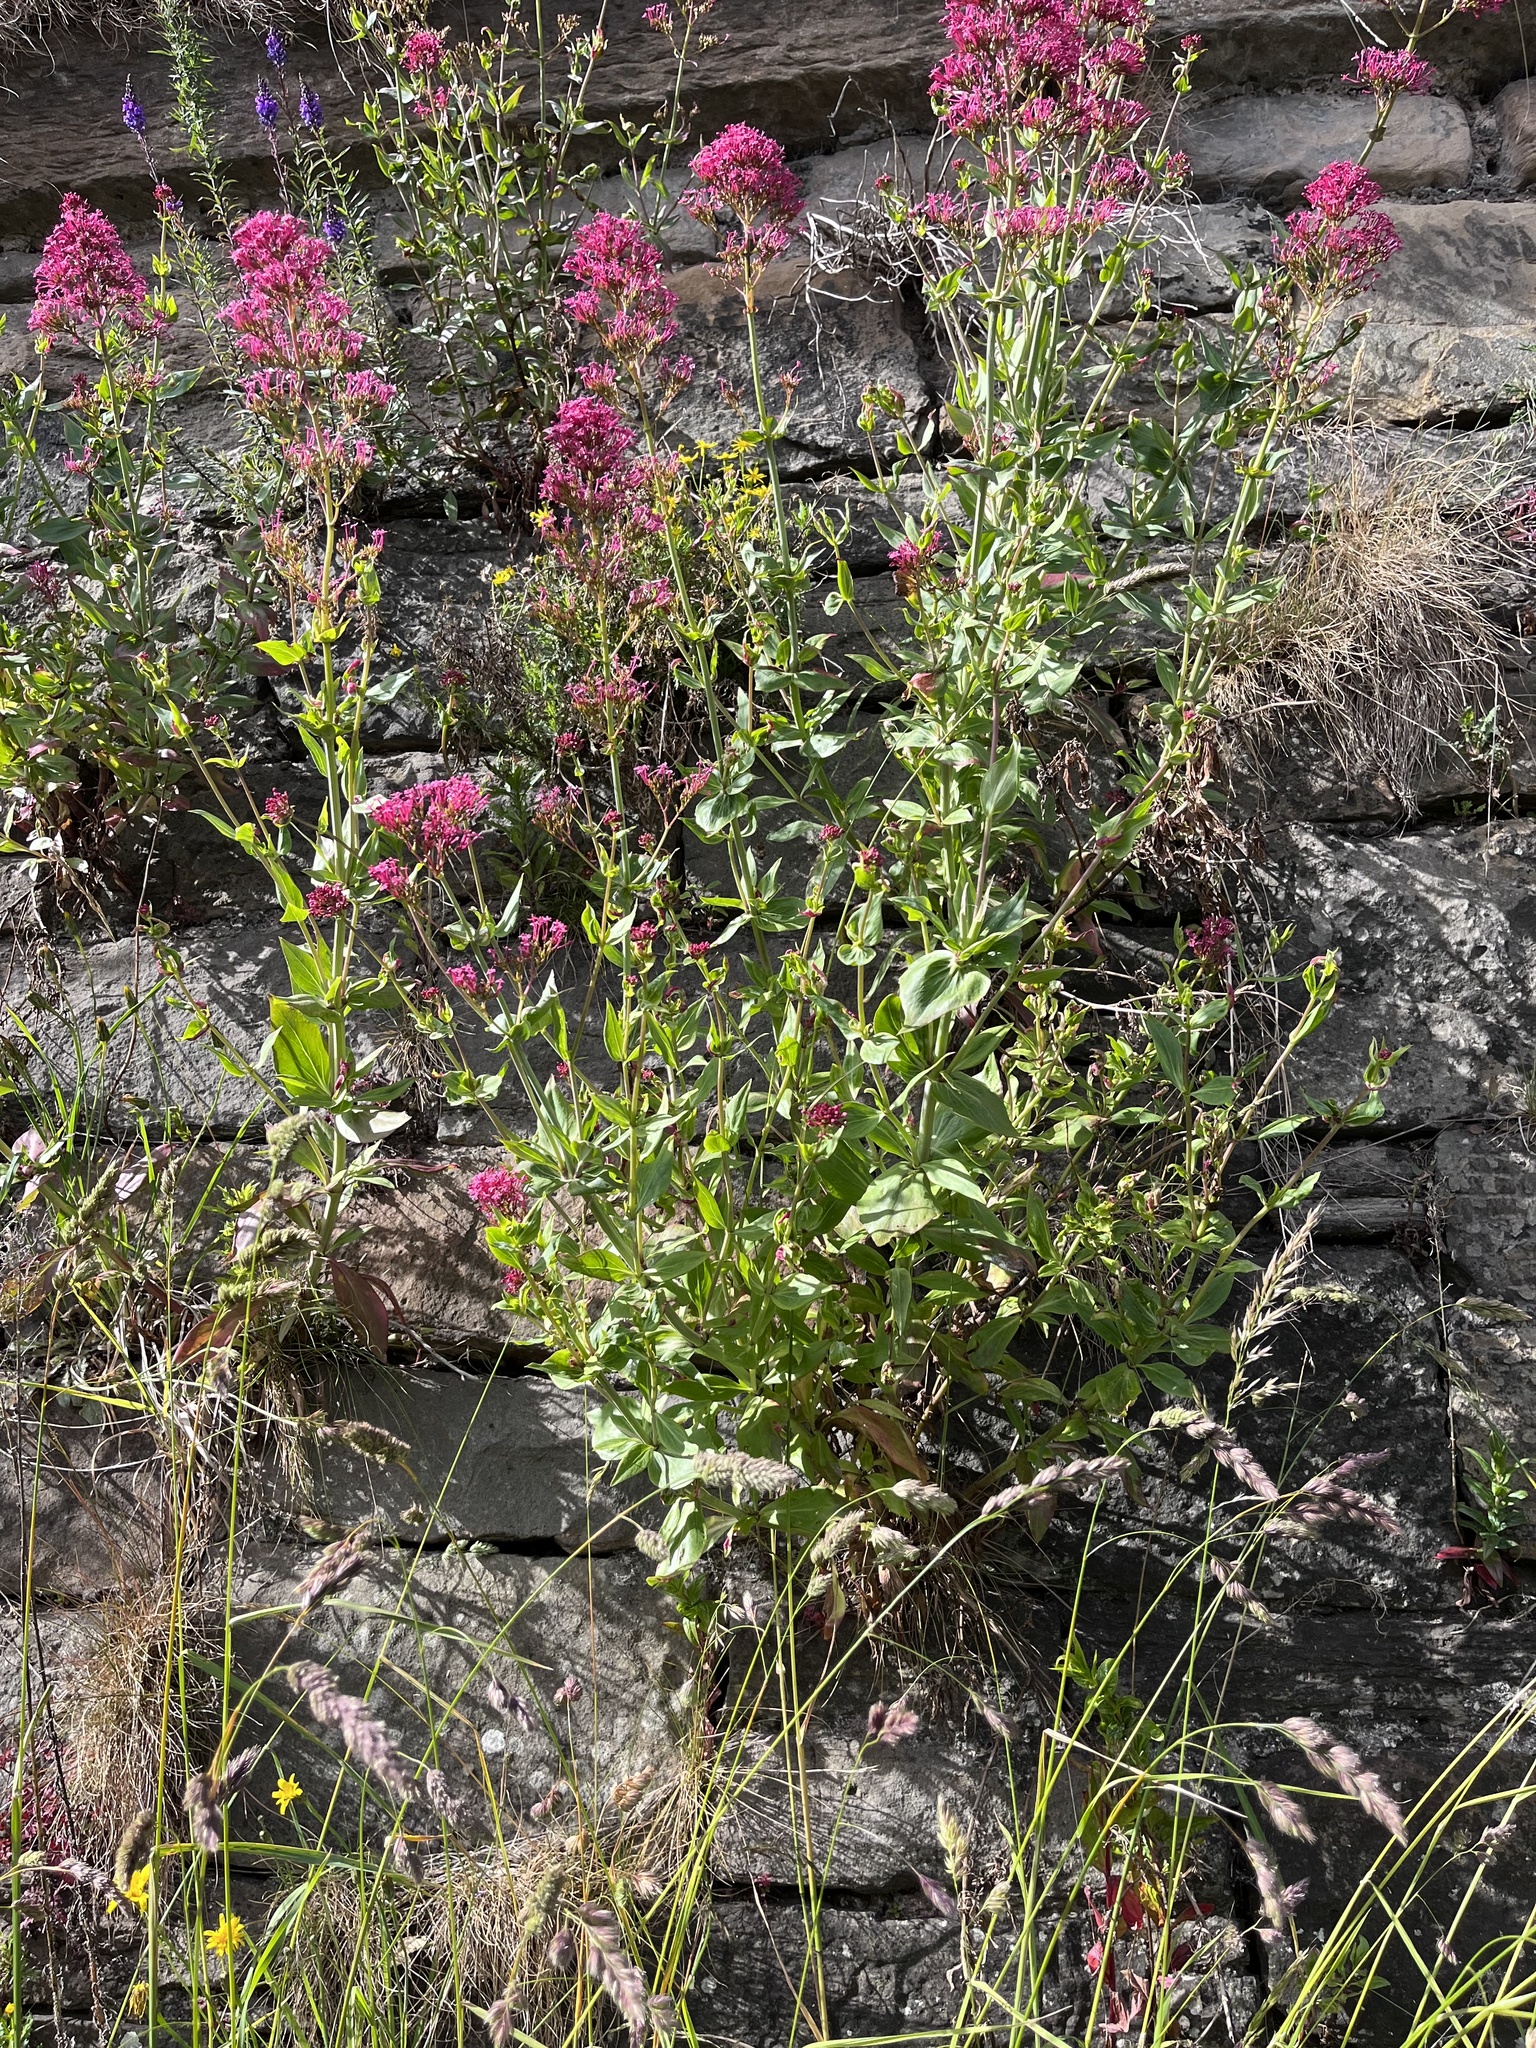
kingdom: Plantae
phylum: Tracheophyta
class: Magnoliopsida
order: Dipsacales
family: Caprifoliaceae
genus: Centranthus
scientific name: Centranthus ruber
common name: Red valerian
